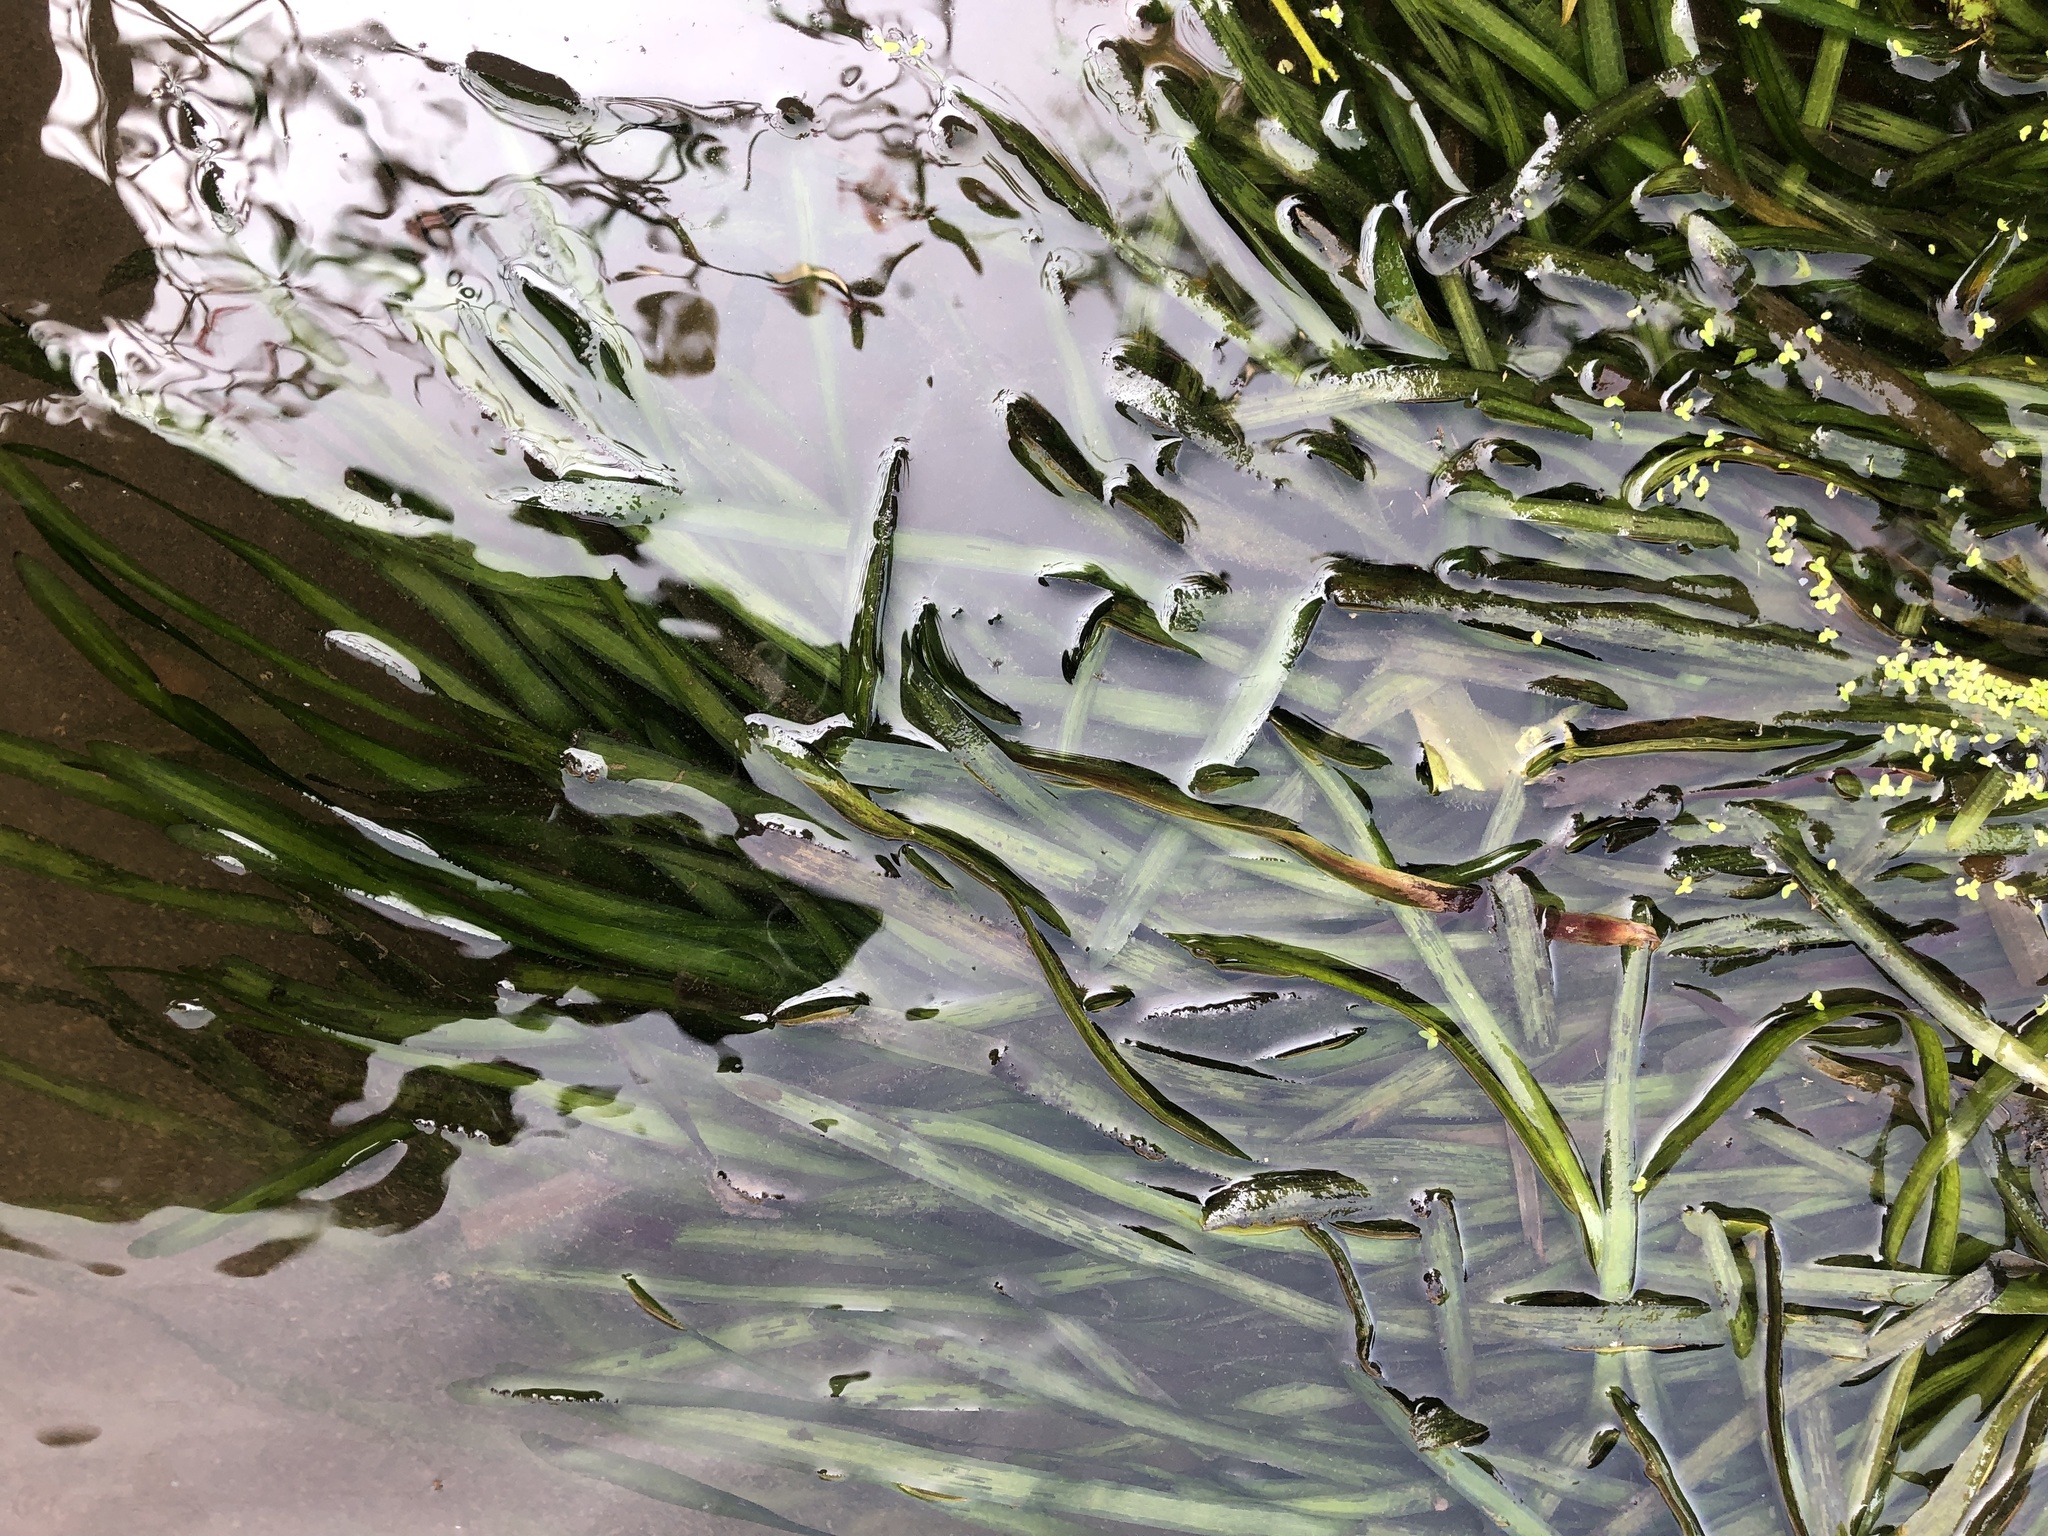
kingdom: Plantae
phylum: Tracheophyta
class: Liliopsida
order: Alismatales
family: Hydrocharitaceae
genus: Vallisneria
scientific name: Vallisneria
